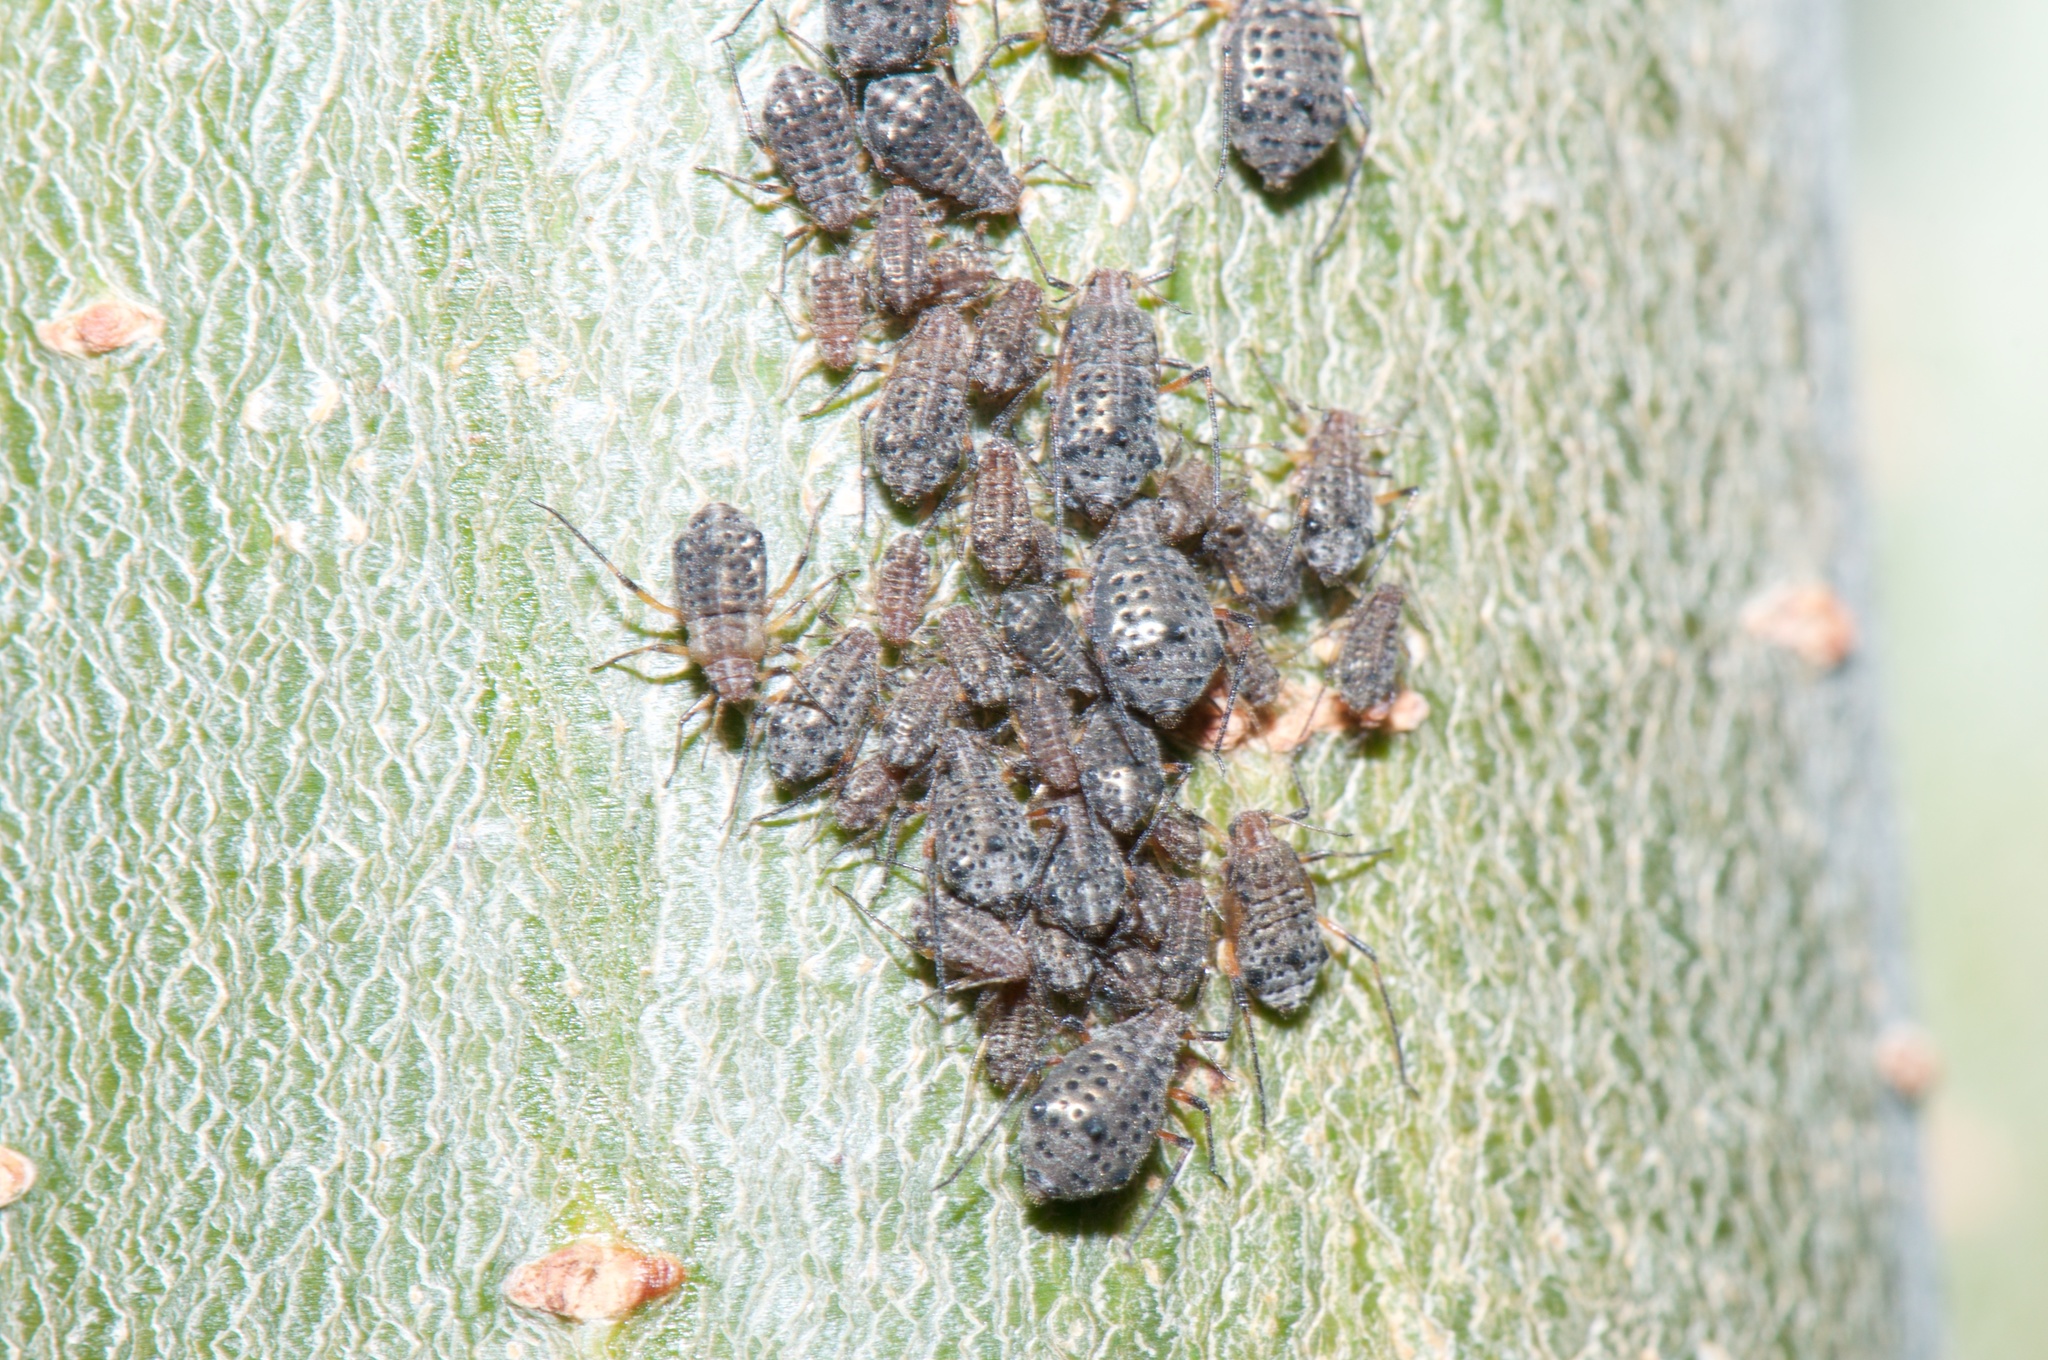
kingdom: Animalia
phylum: Arthropoda
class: Insecta
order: Hemiptera
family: Aphididae
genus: Tuberolachnus
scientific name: Tuberolachnus salignus
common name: Giant willow aphid
